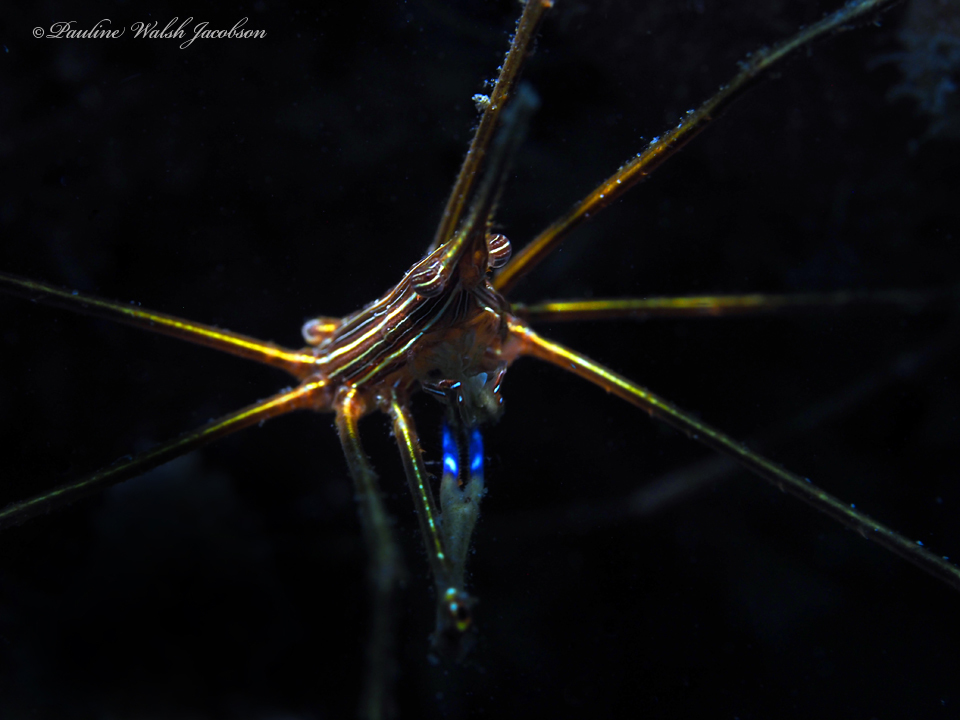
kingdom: Animalia
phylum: Arthropoda
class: Malacostraca
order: Decapoda
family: Inachoididae
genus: Stenorhynchus
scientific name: Stenorhynchus seticornis
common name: Arrow crab
